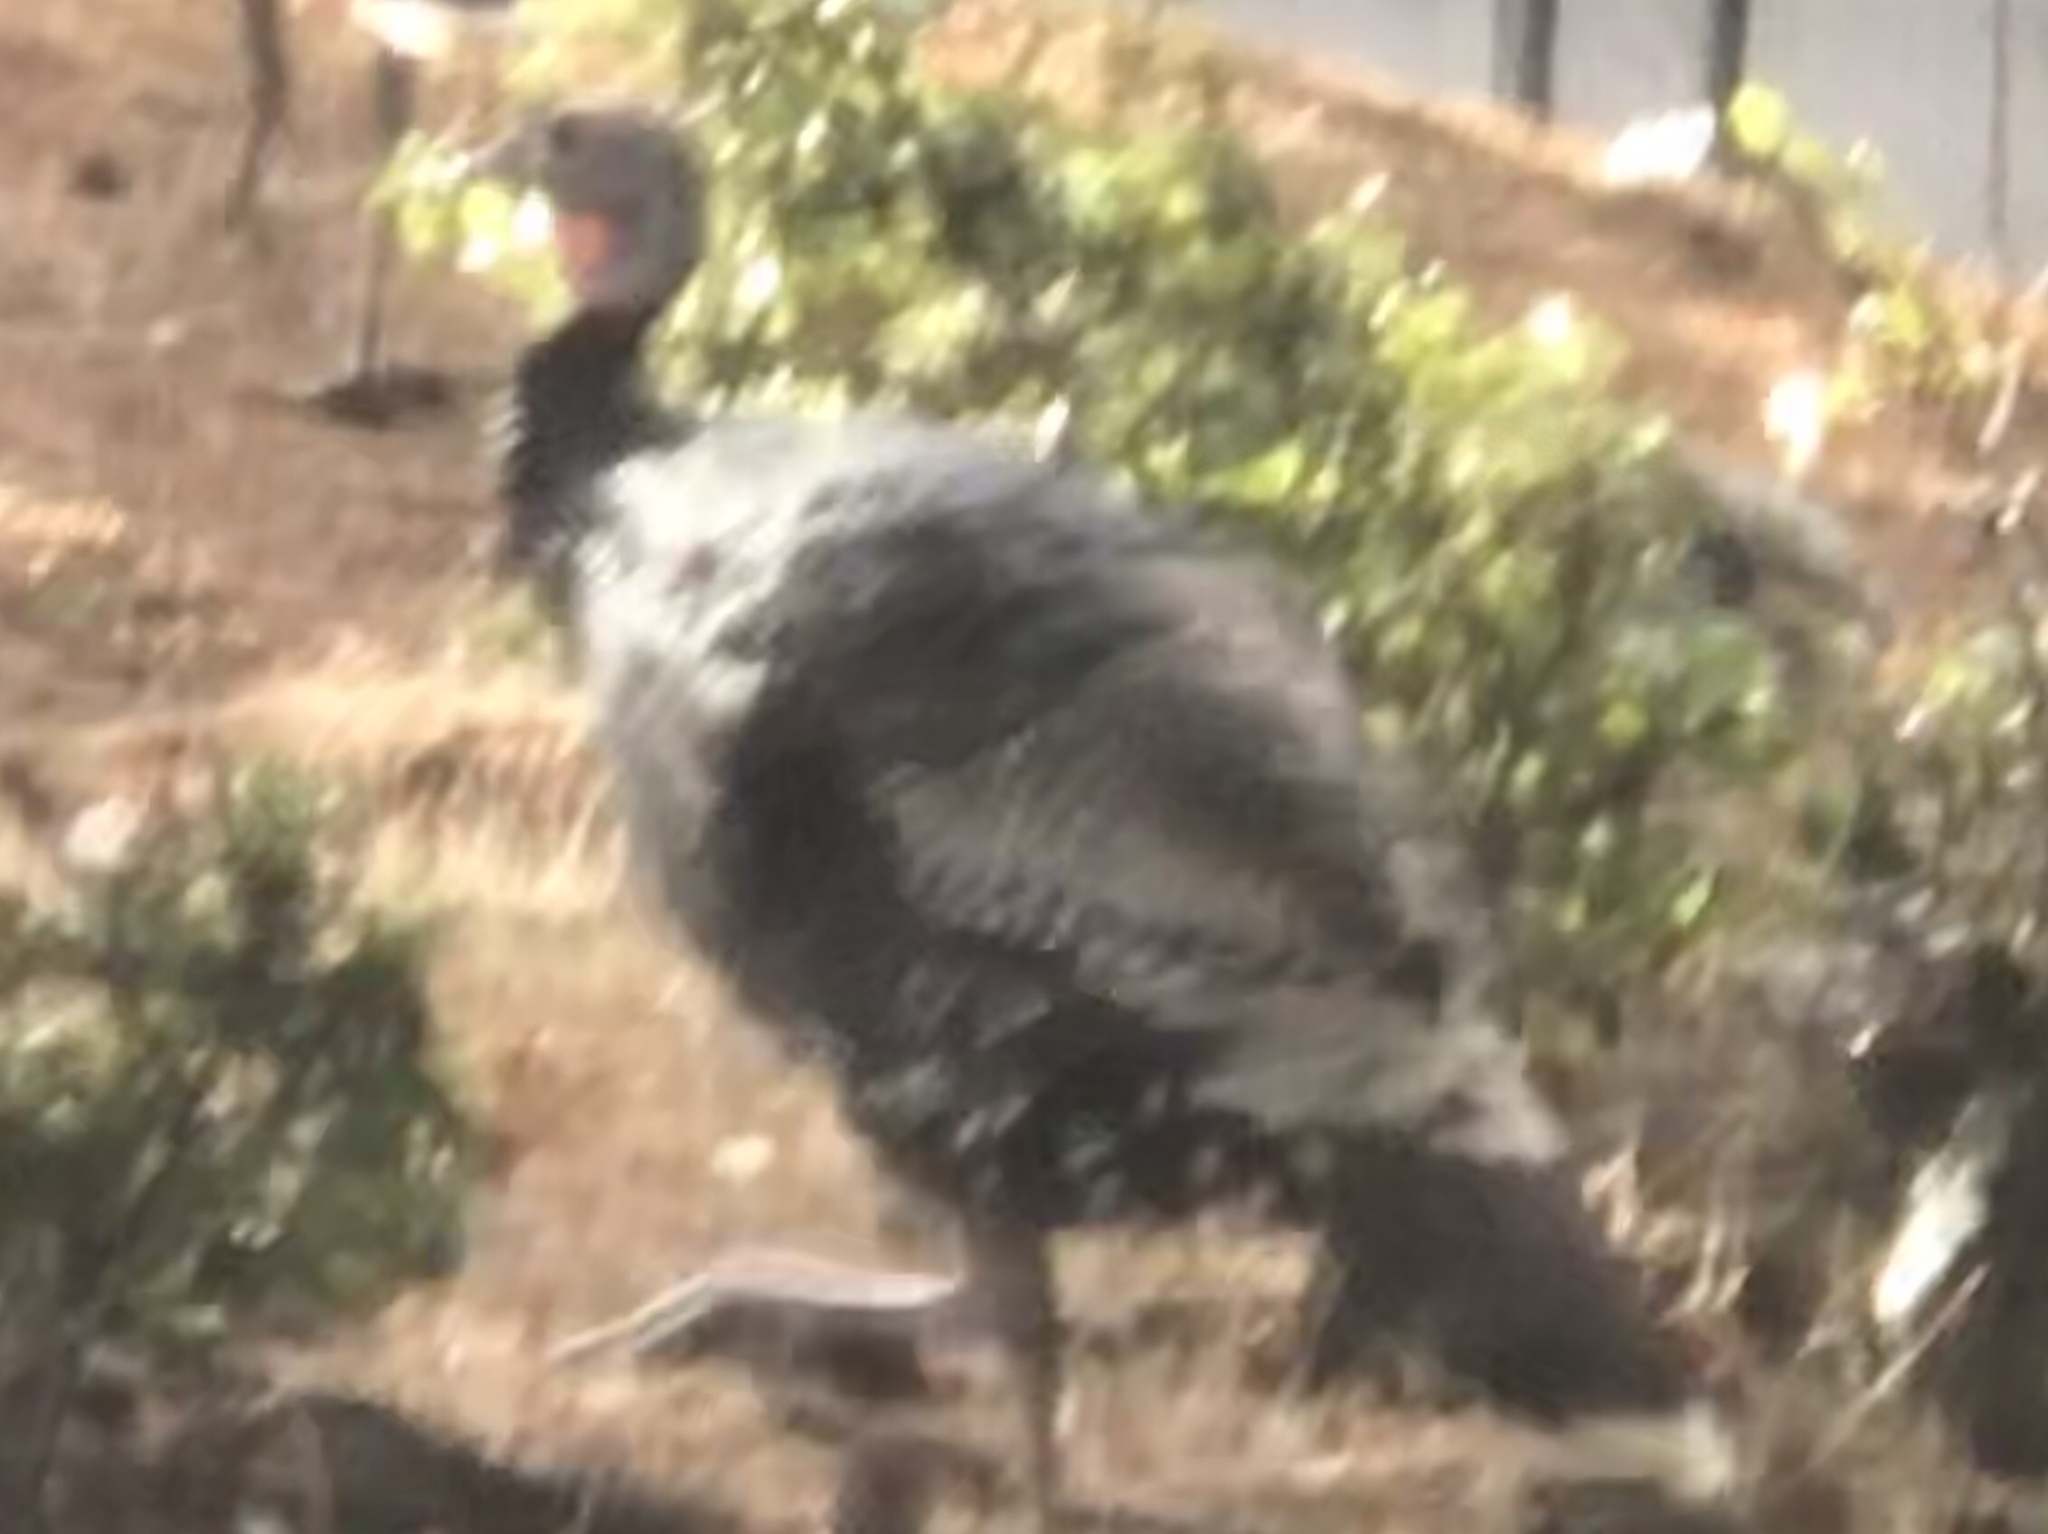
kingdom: Animalia
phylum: Chordata
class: Aves
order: Galliformes
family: Phasianidae
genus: Meleagris
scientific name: Meleagris gallopavo
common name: Wild turkey
